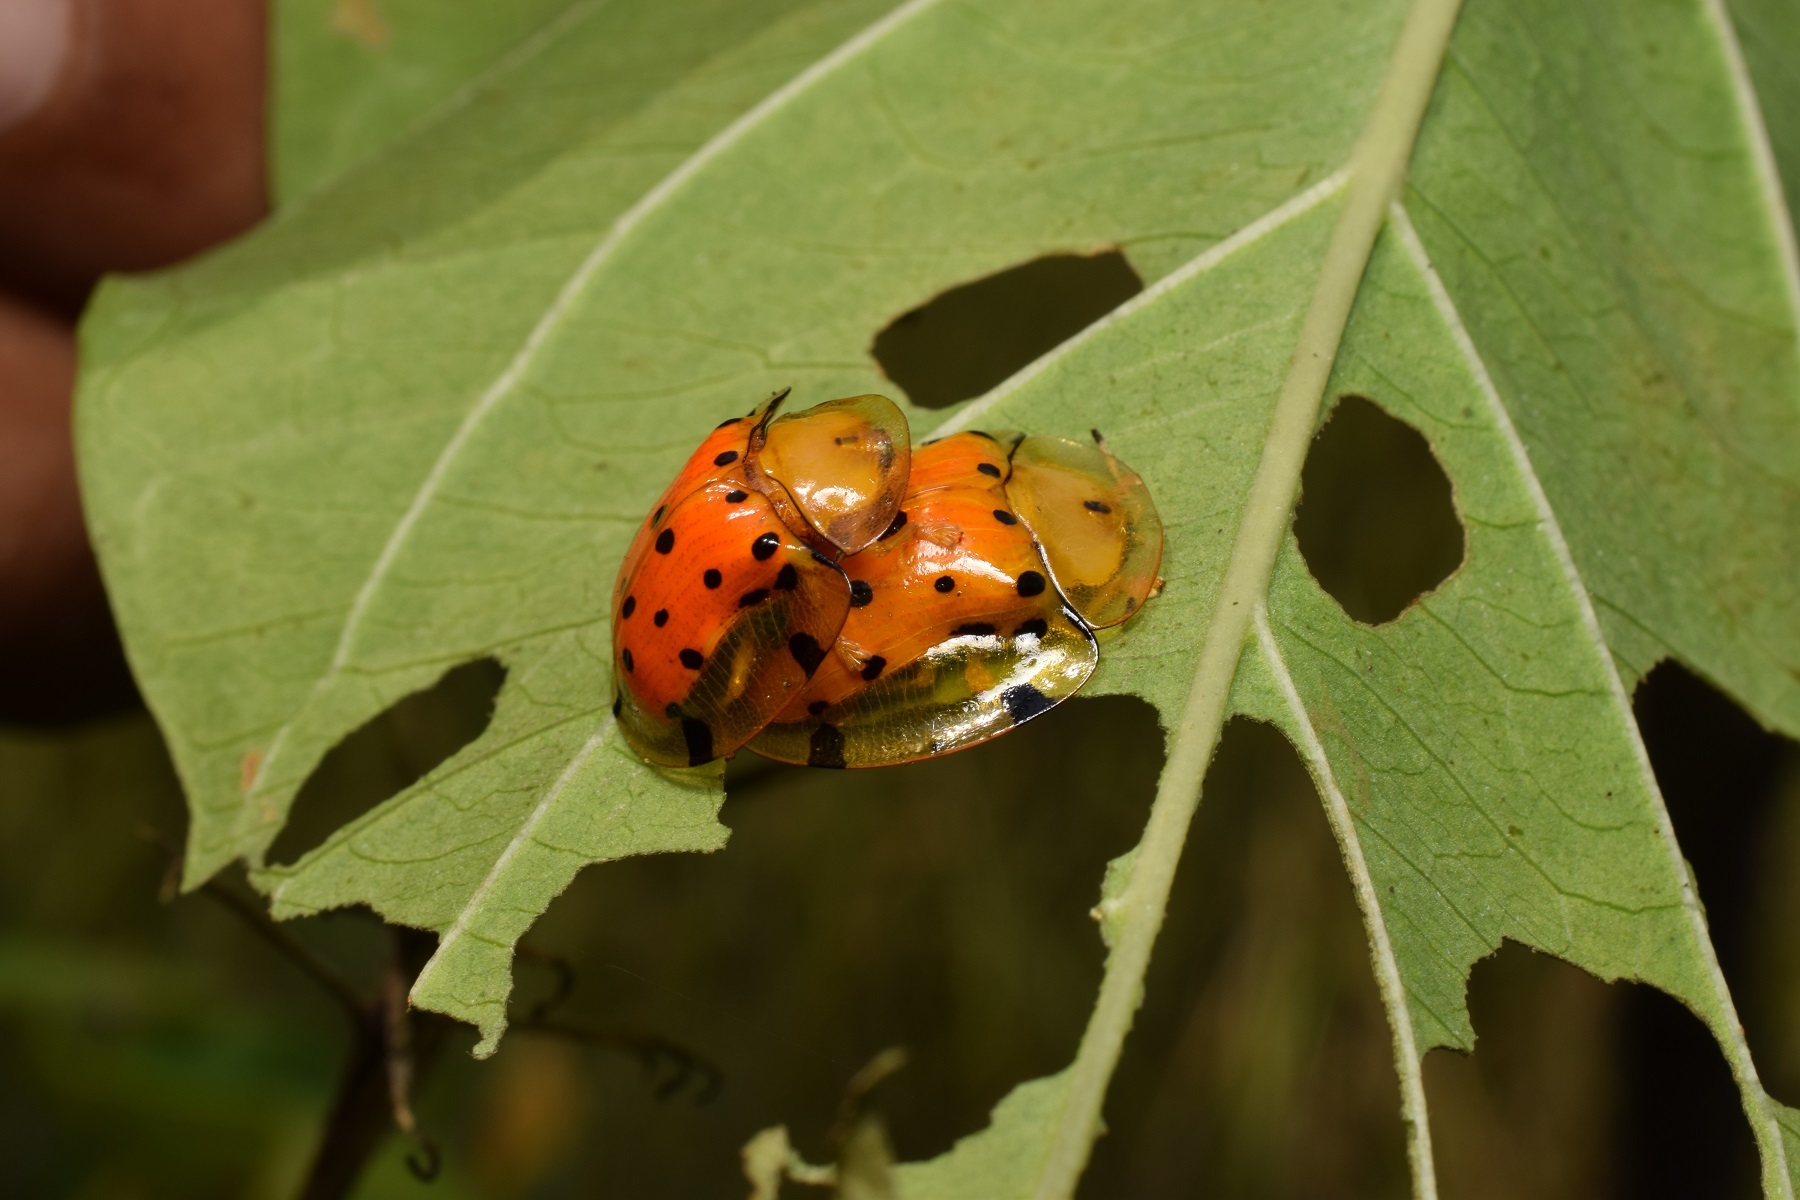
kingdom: Animalia
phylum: Arthropoda
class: Insecta
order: Coleoptera
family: Chrysomelidae
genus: Aspidimorpha
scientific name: Aspidimorpha miliaris
